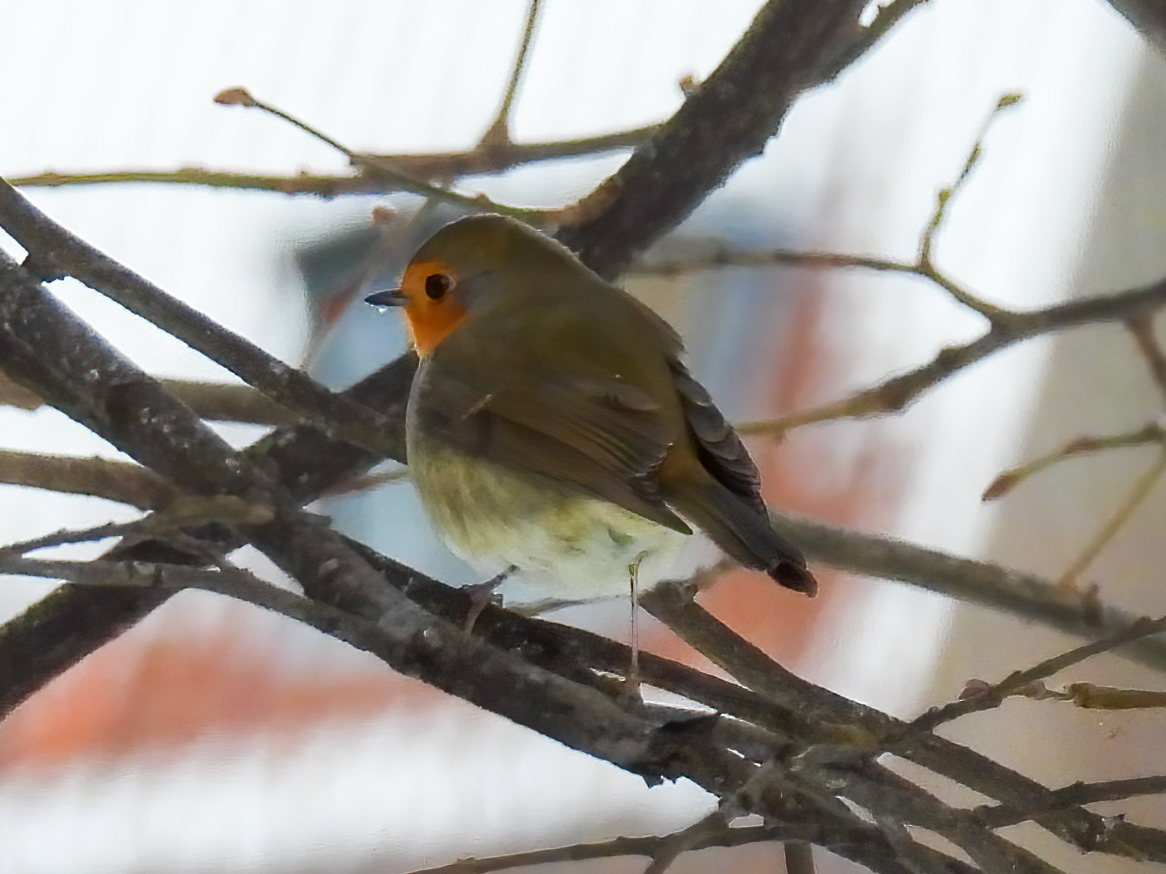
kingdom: Animalia
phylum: Chordata
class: Aves
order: Passeriformes
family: Muscicapidae
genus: Erithacus
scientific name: Erithacus rubecula
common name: European robin
